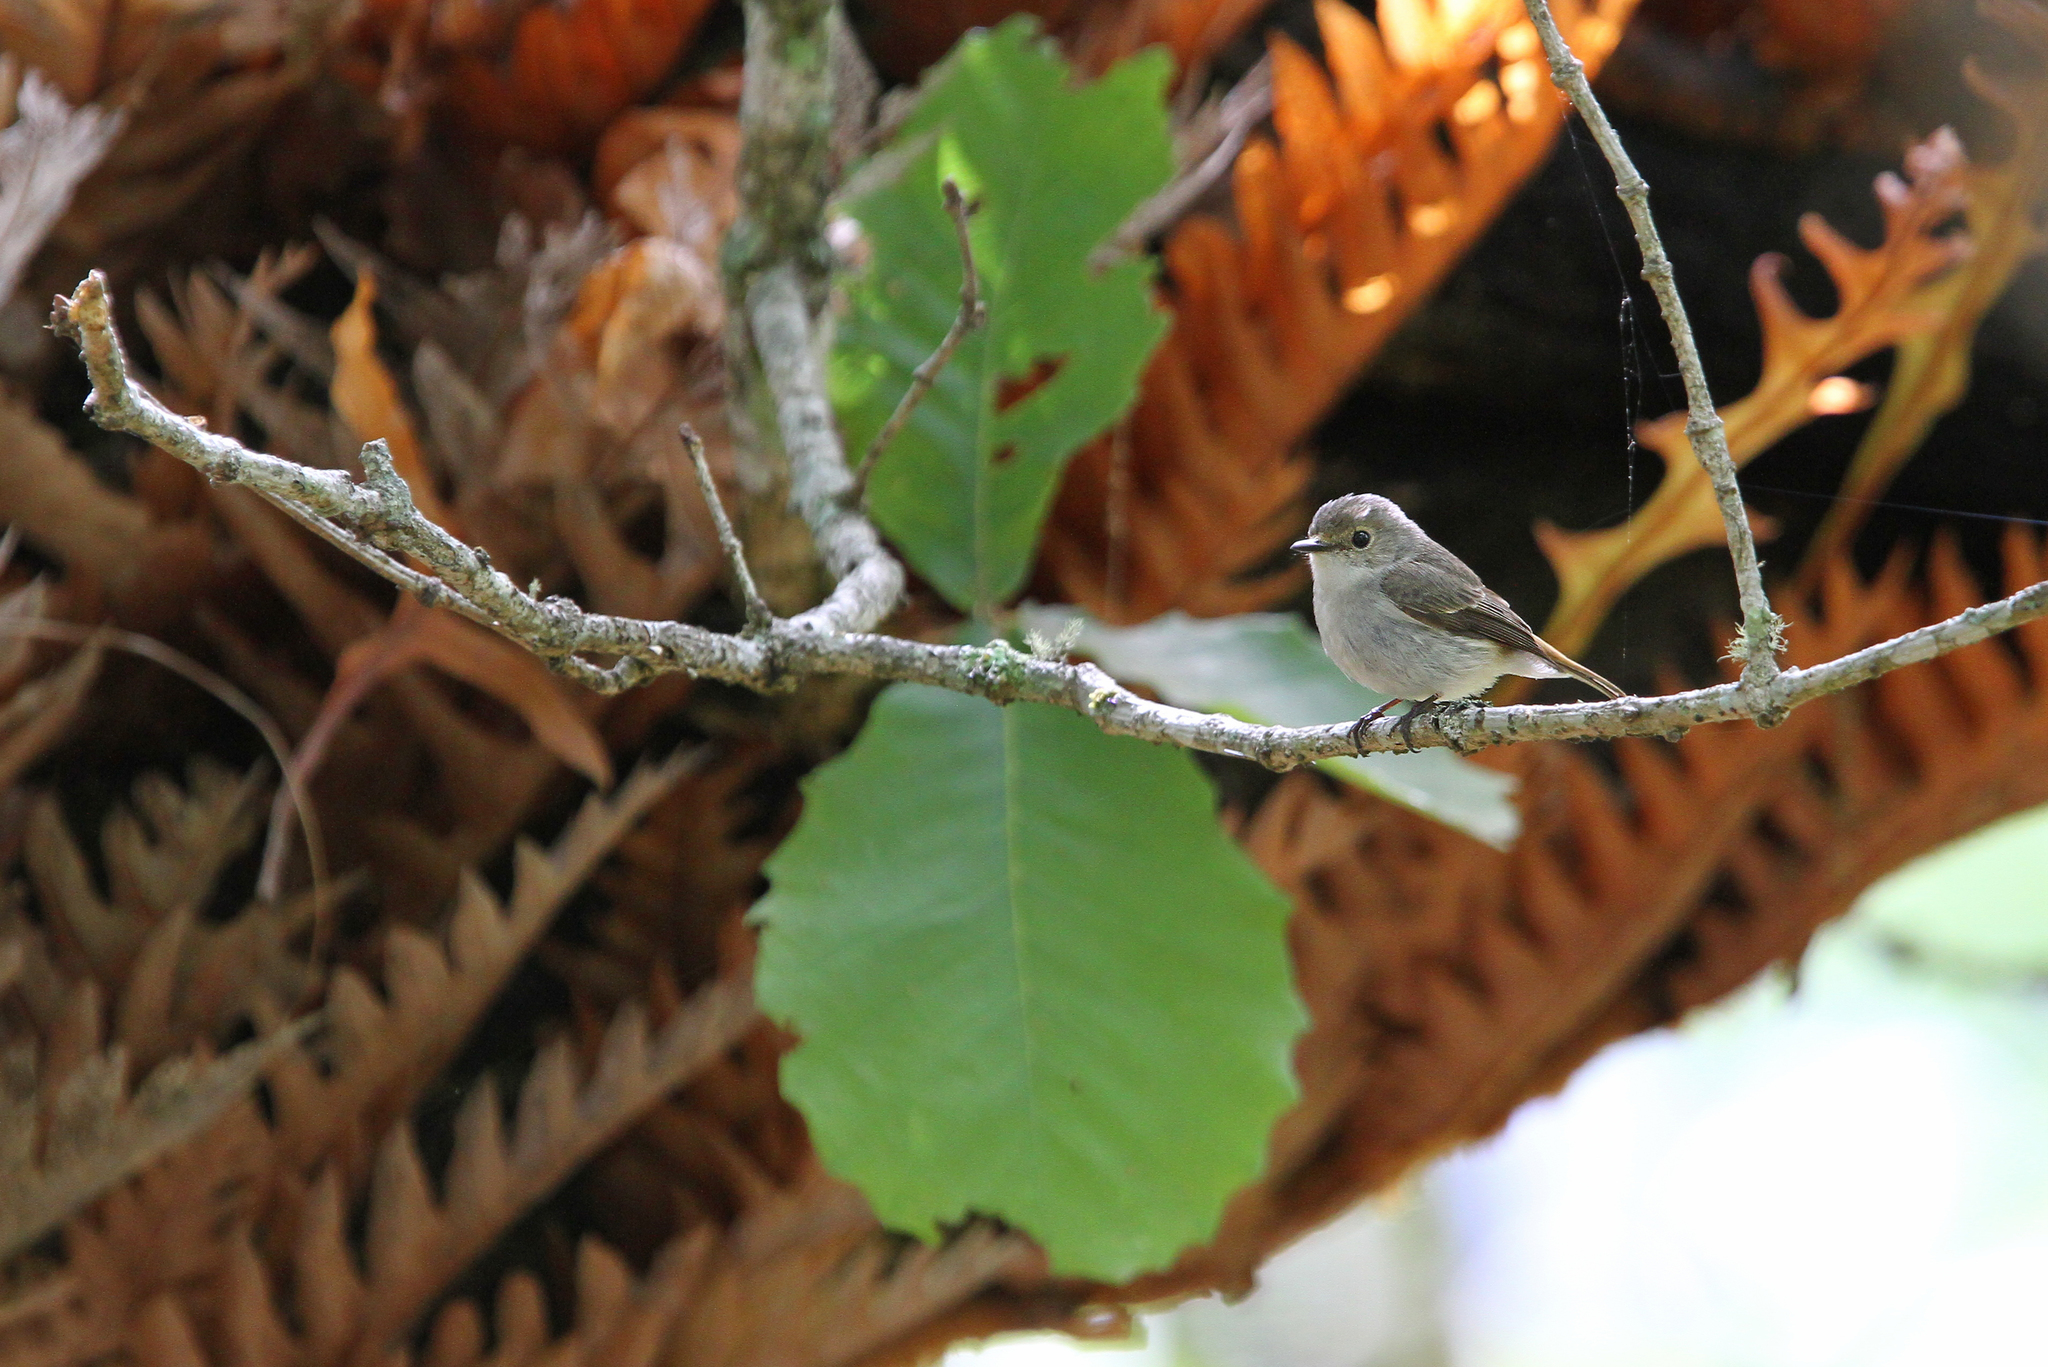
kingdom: Animalia
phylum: Chordata
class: Aves
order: Passeriformes
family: Muscicapidae
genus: Ficedula
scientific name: Ficedula superciliaris
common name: Ultramarine flycatcher
